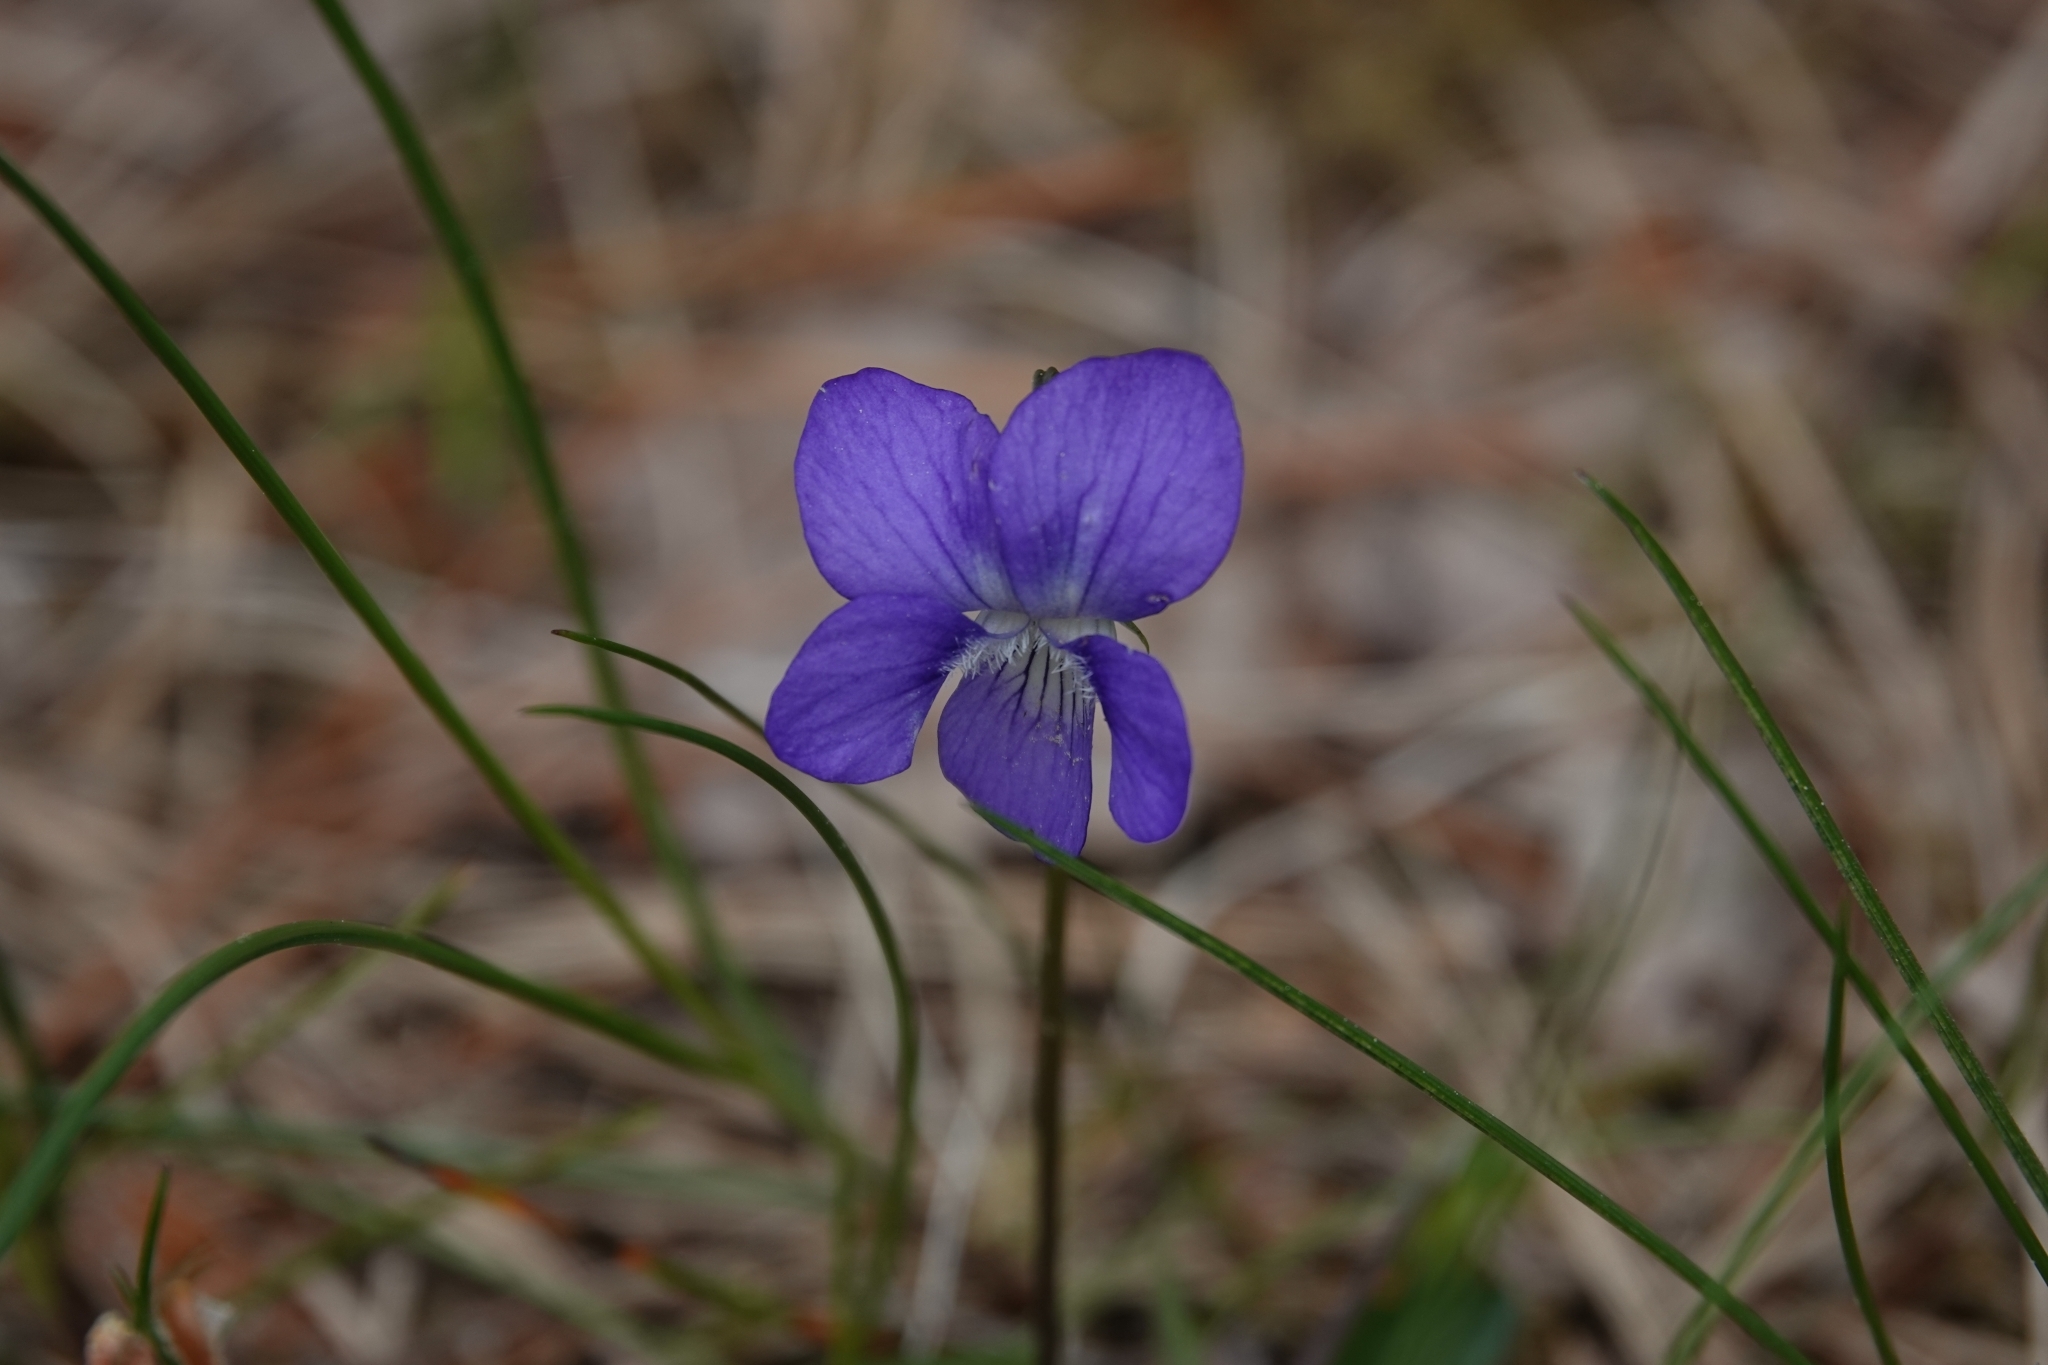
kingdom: Plantae
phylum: Tracheophyta
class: Magnoliopsida
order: Malpighiales
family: Violaceae
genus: Viola
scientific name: Viola
